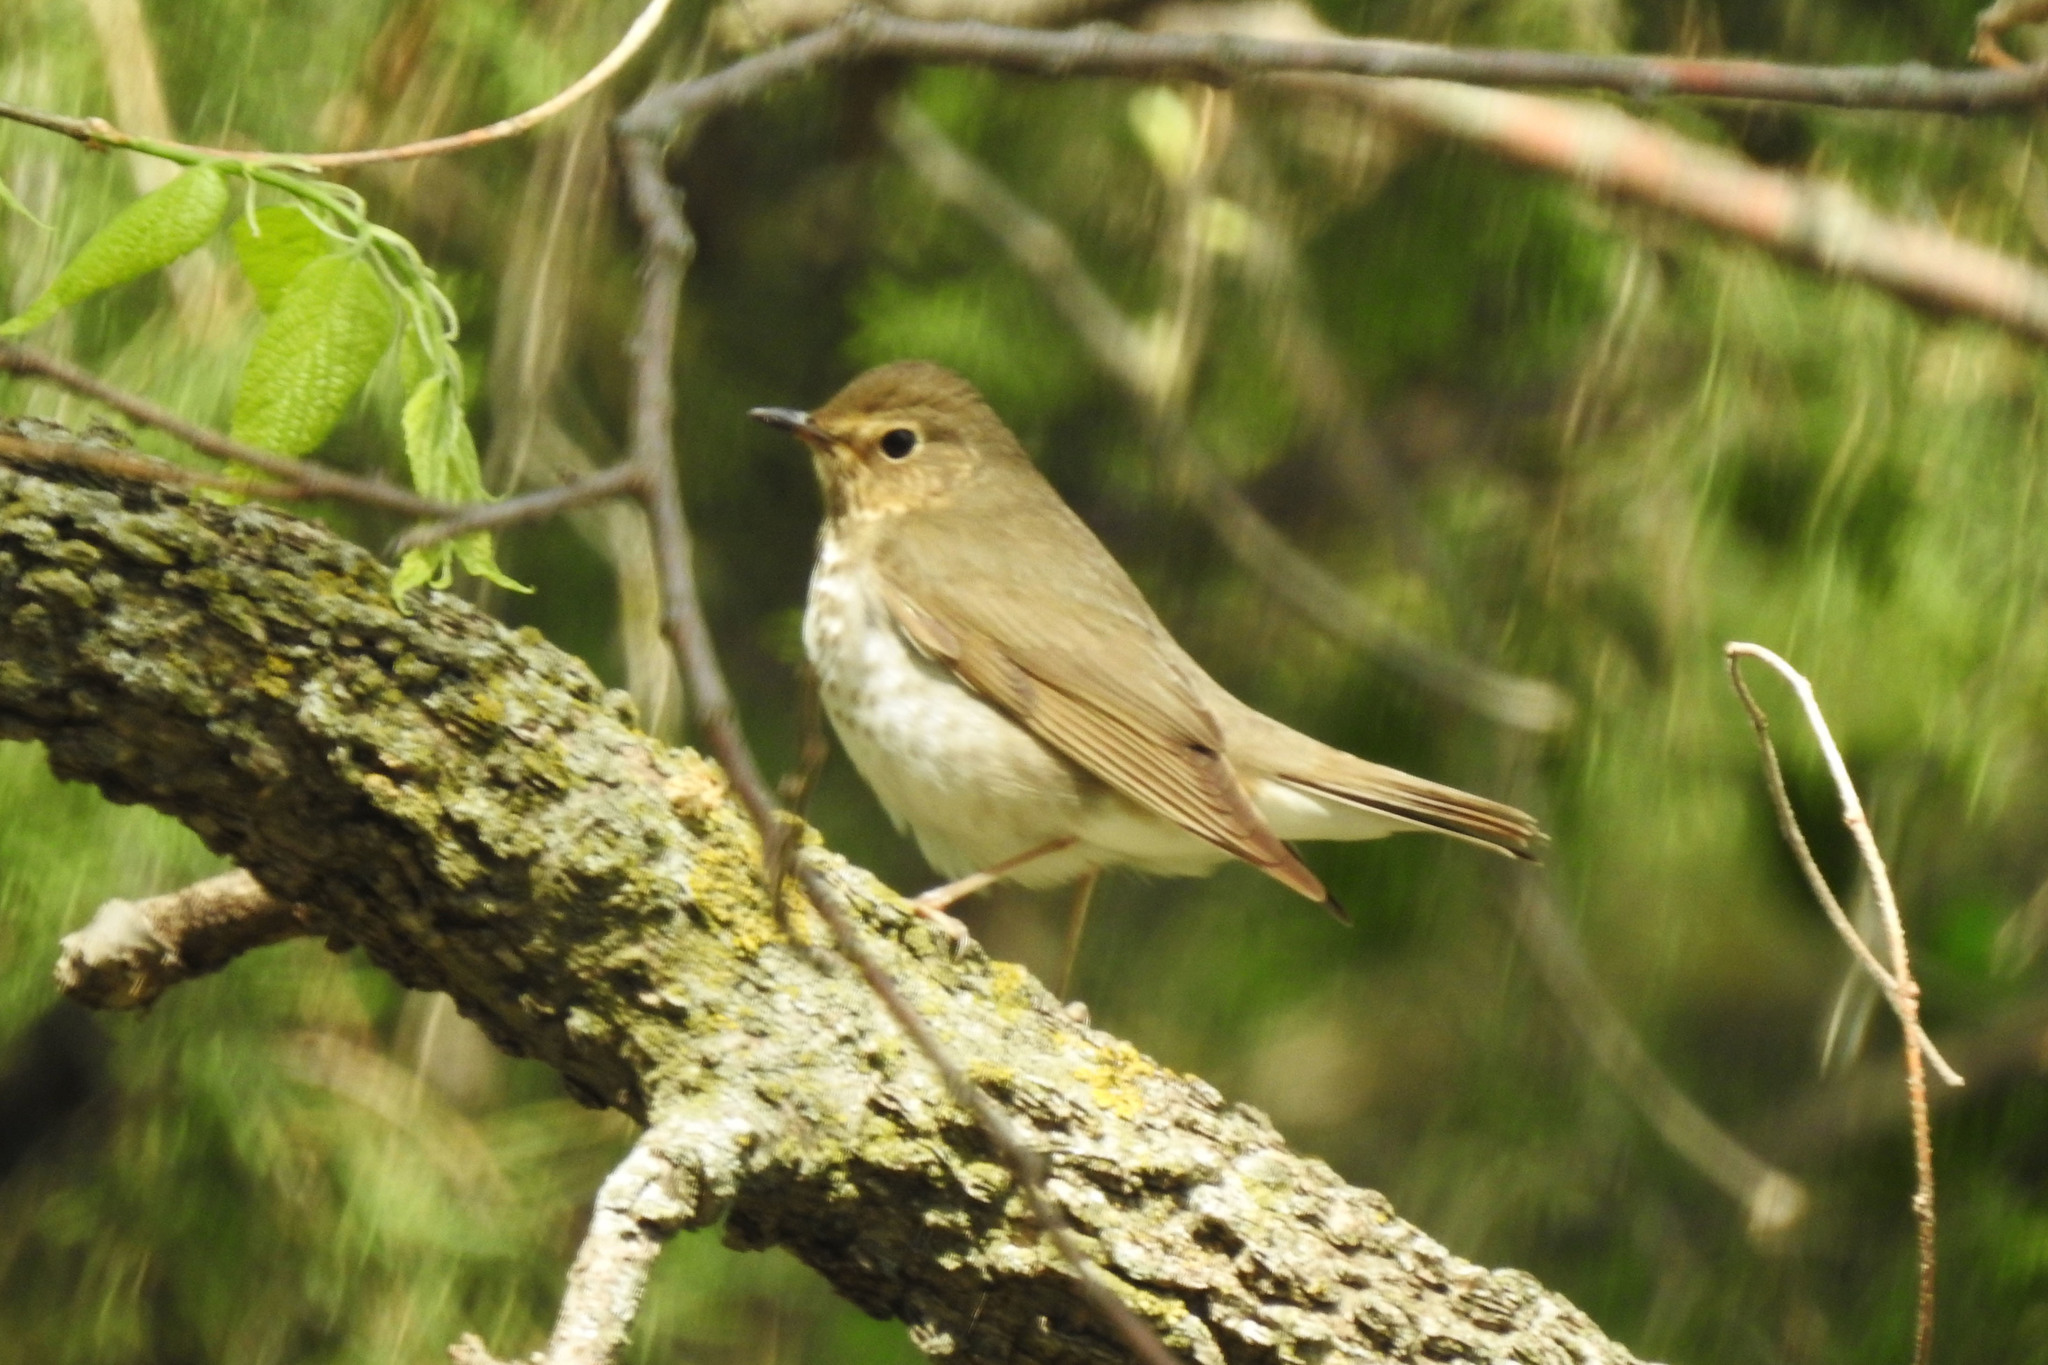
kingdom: Animalia
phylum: Chordata
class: Aves
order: Passeriformes
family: Turdidae
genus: Catharus
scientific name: Catharus ustulatus
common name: Swainson's thrush
